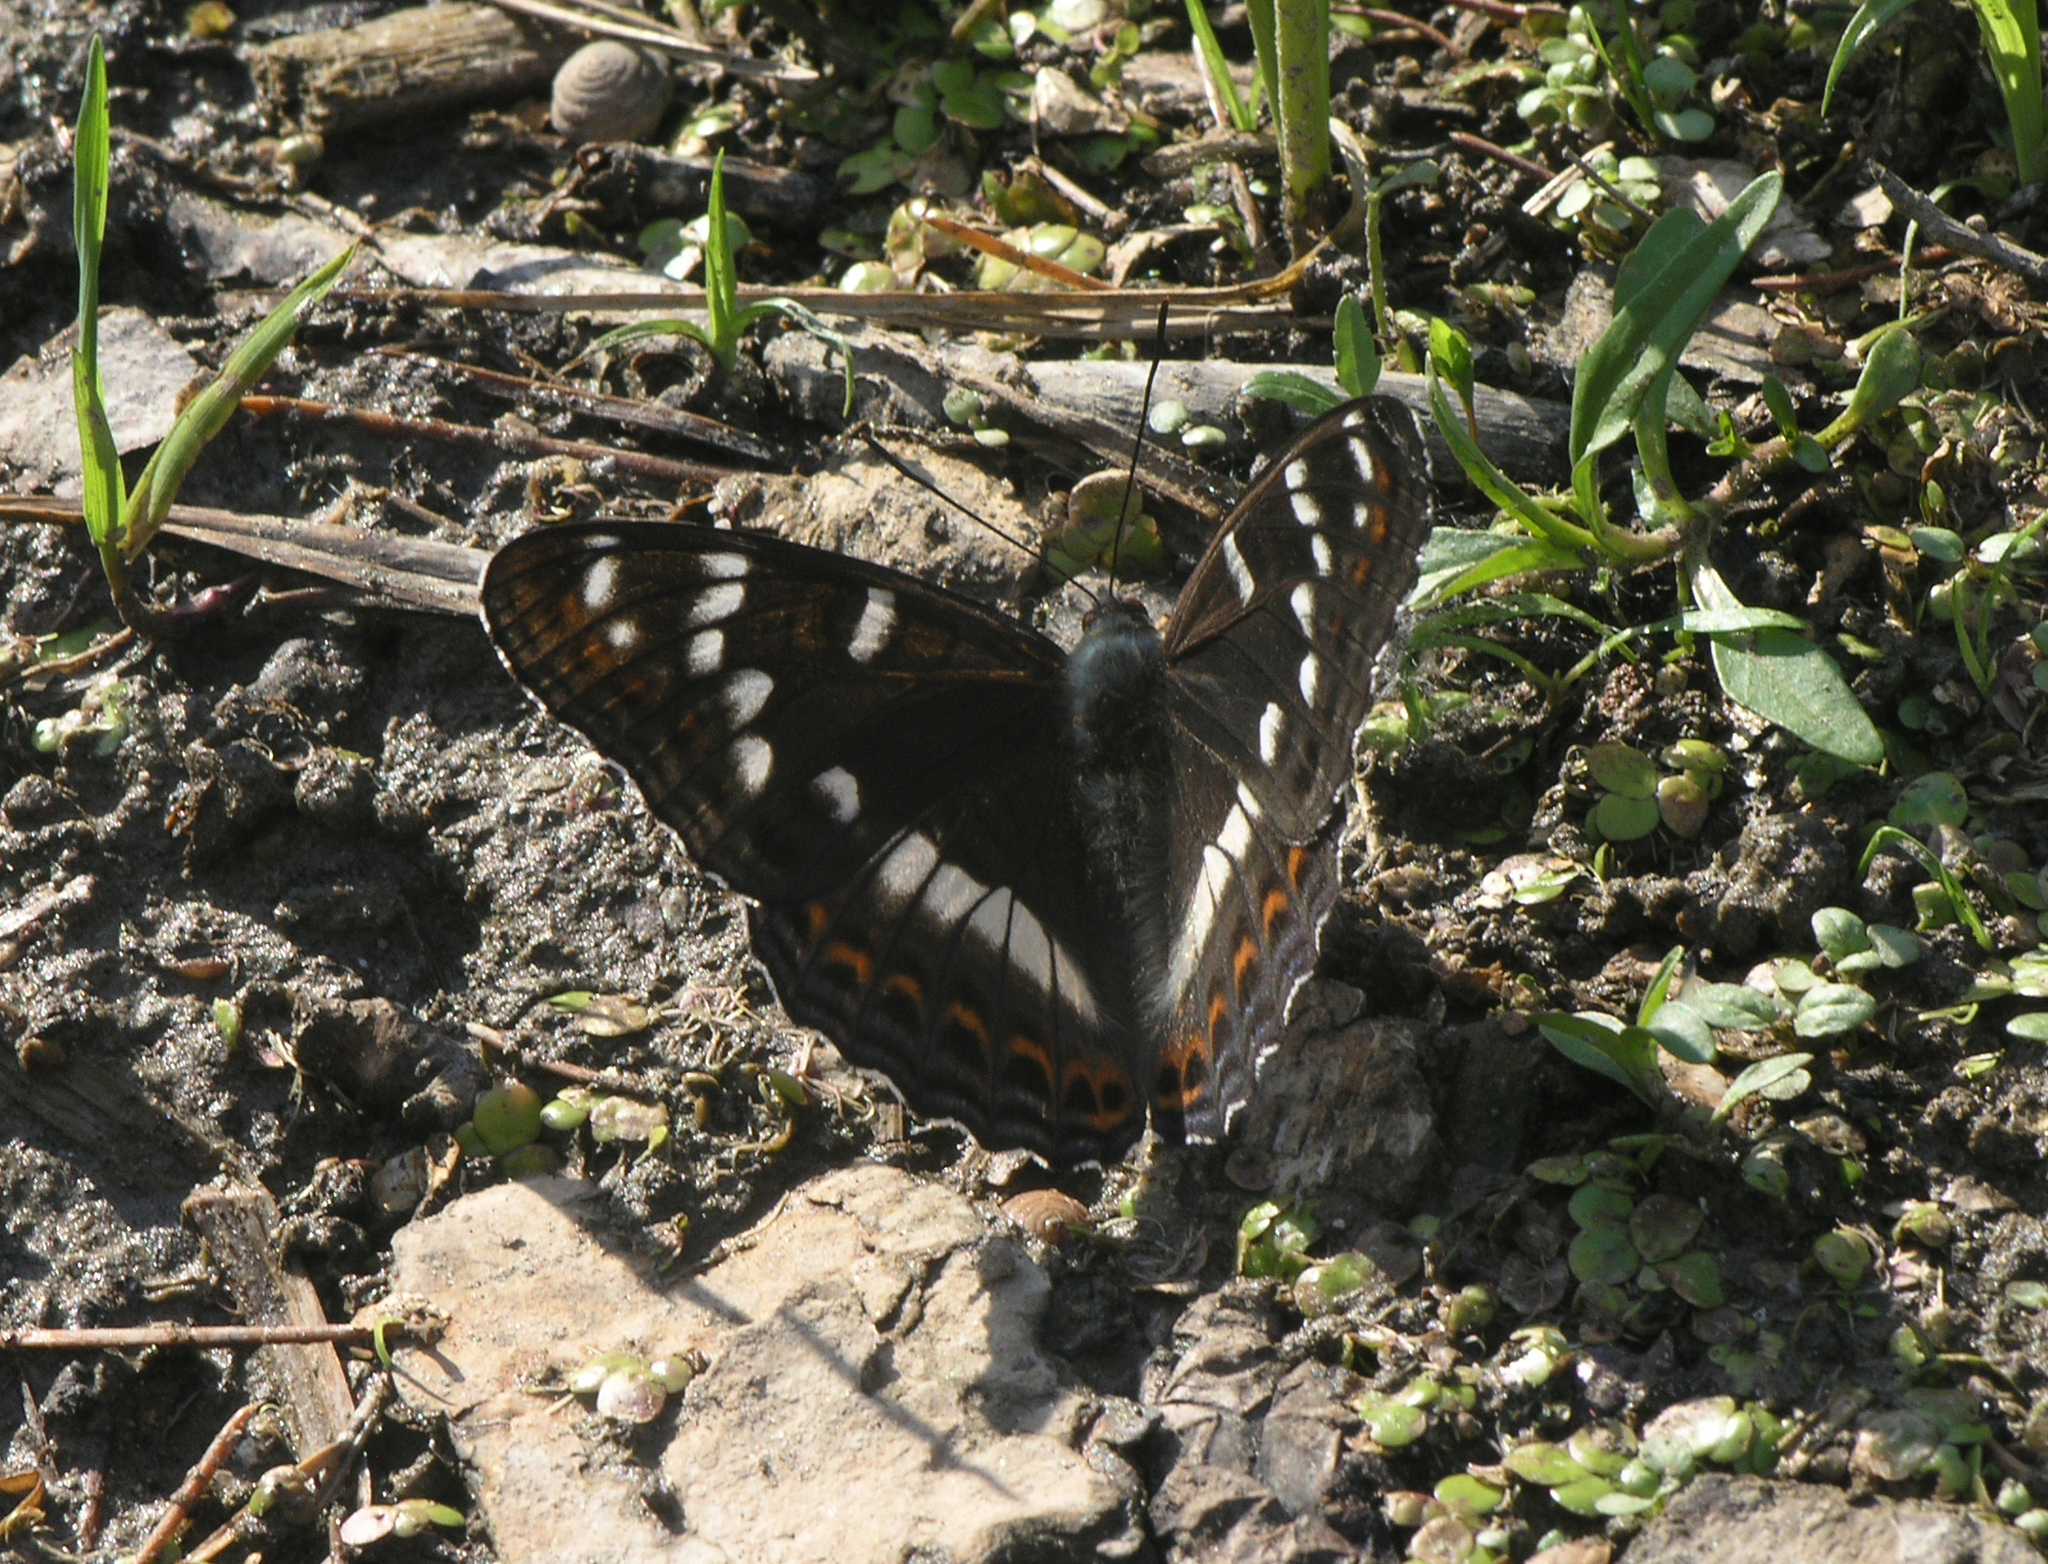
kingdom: Animalia
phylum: Arthropoda
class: Insecta
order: Lepidoptera
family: Nymphalidae
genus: Limenitis
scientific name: Limenitis populi
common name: Poplar admiral
